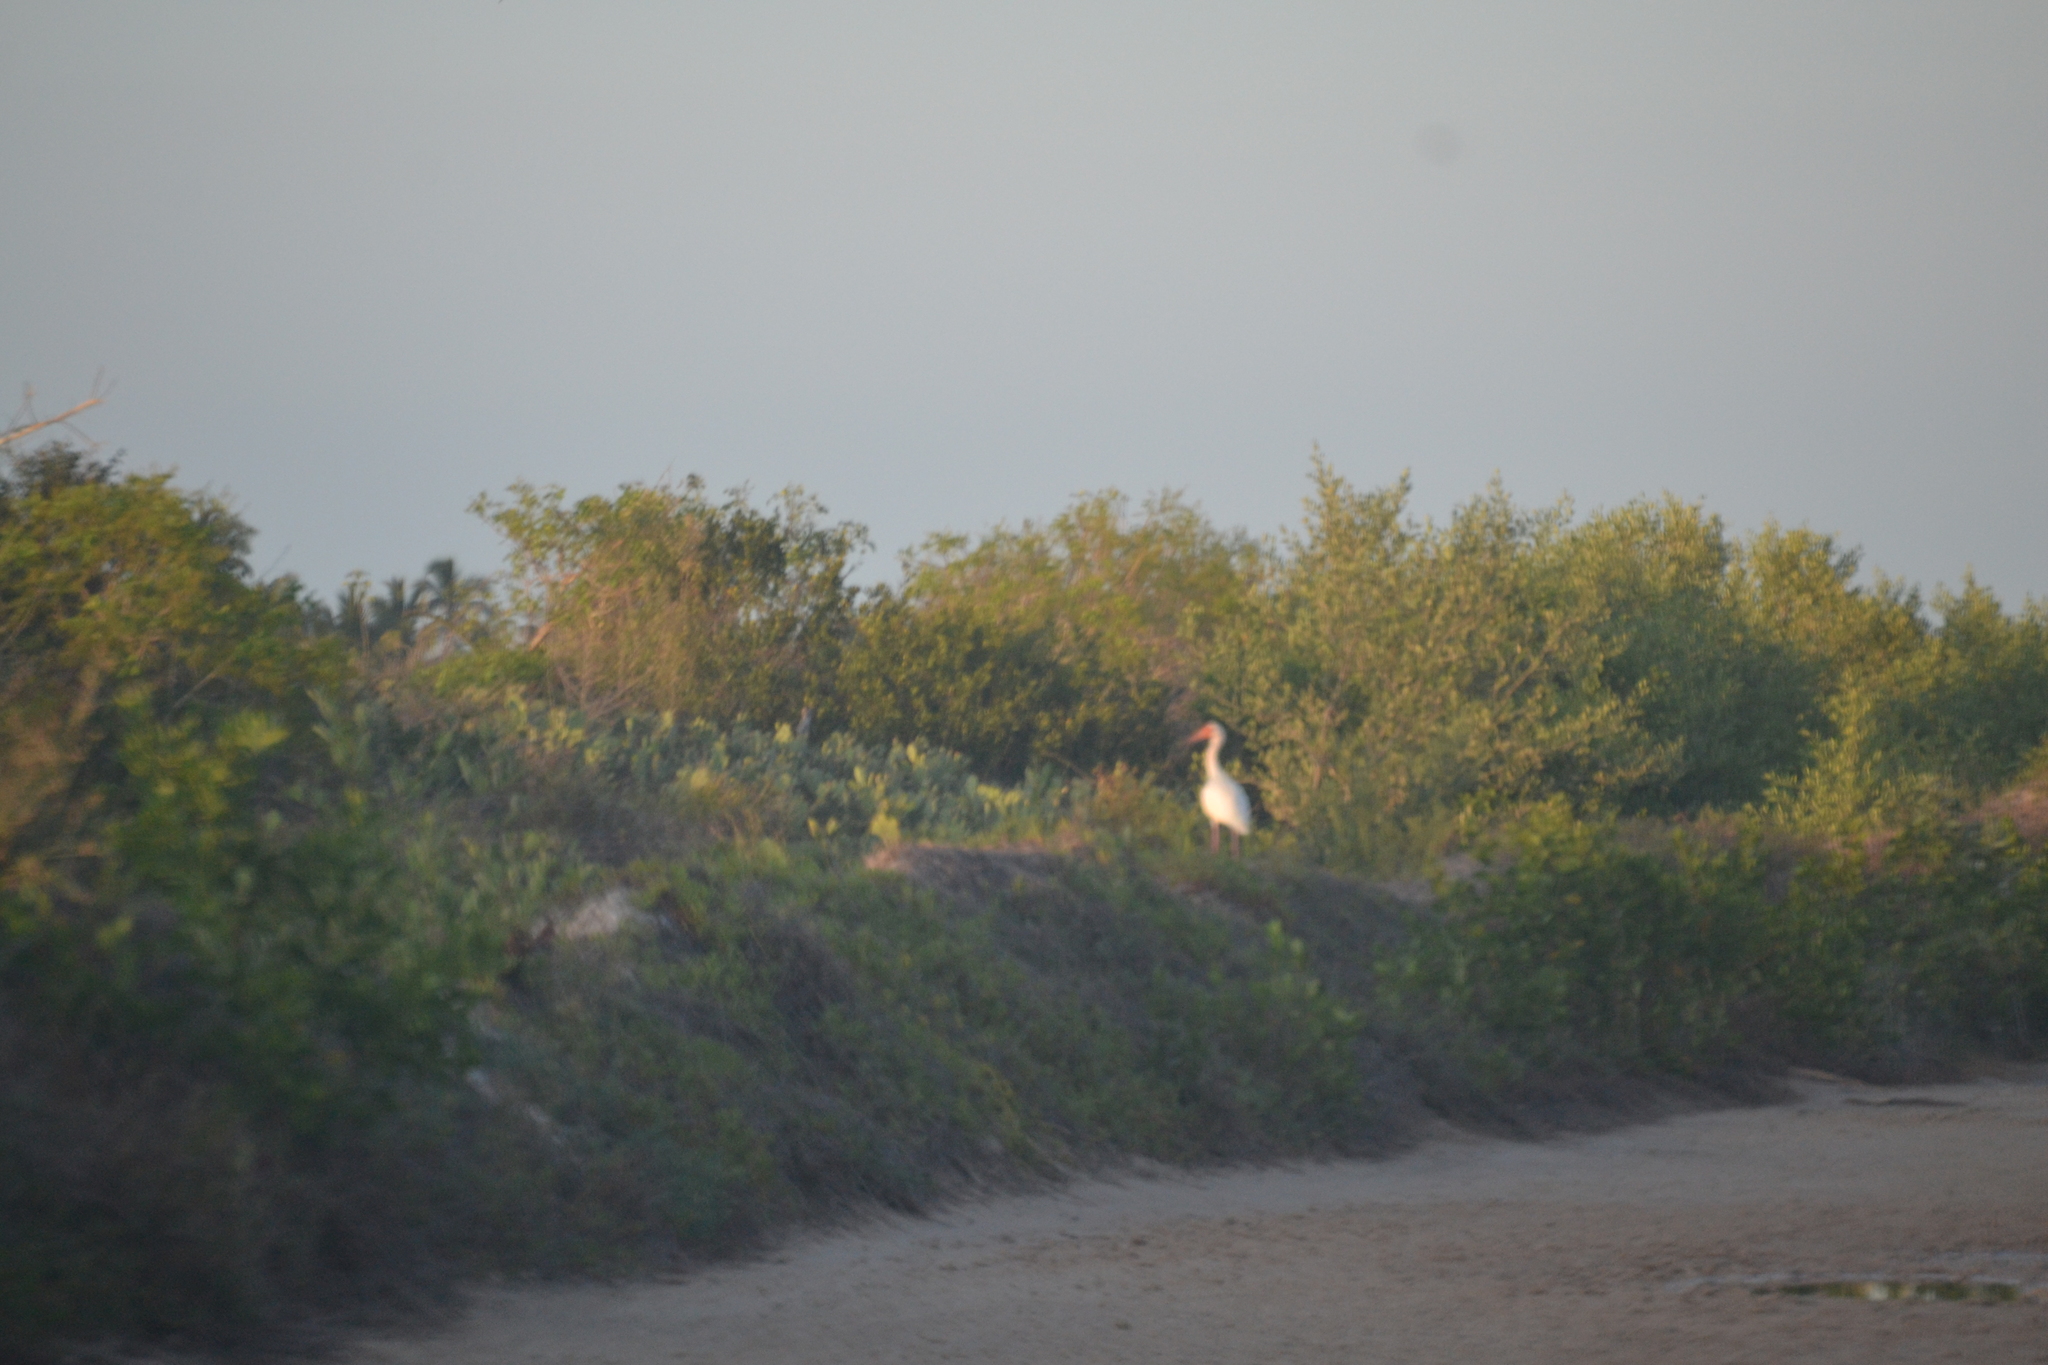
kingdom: Animalia
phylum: Chordata
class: Aves
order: Pelecaniformes
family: Threskiornithidae
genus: Eudocimus
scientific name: Eudocimus albus
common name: White ibis
